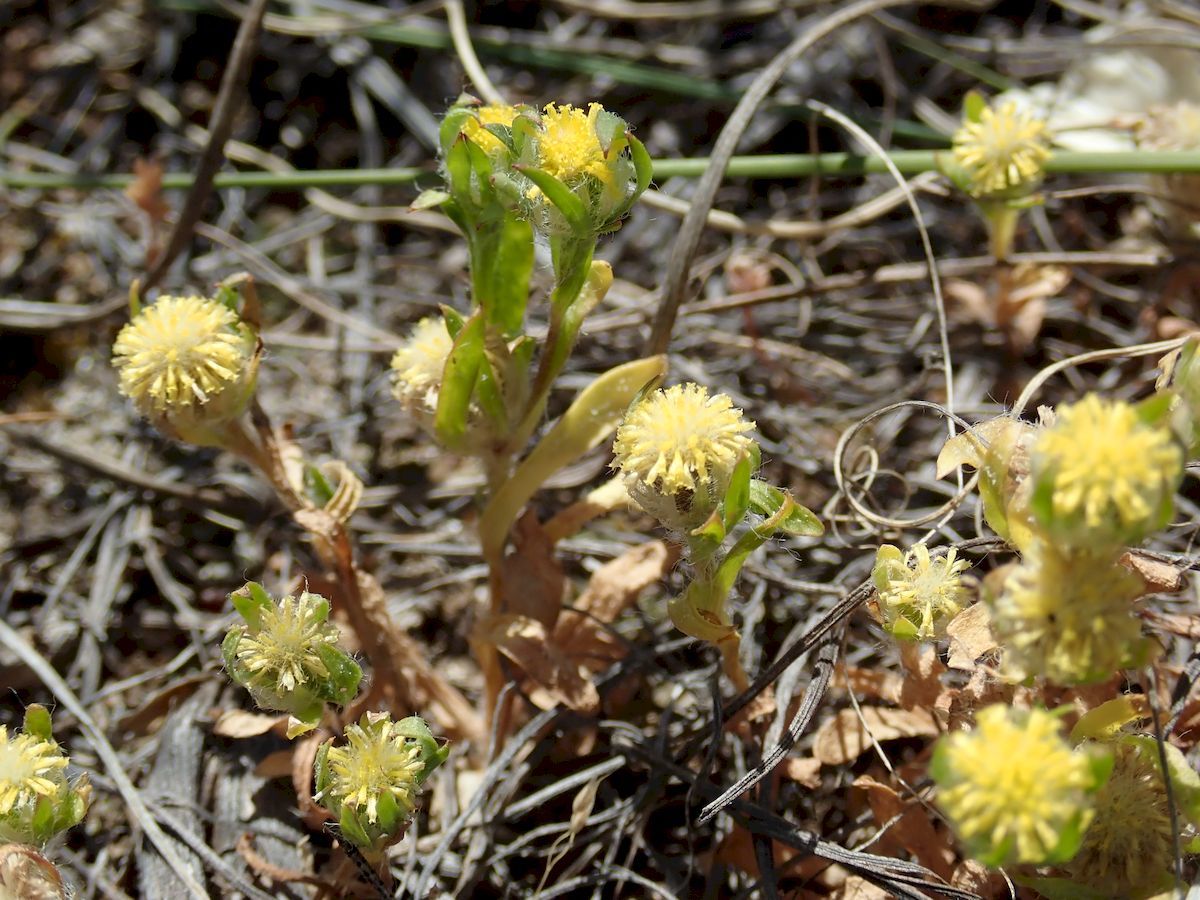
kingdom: Plantae
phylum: Tracheophyta
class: Magnoliopsida
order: Asterales
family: Asteraceae
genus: Triptilodiscus
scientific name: Triptilodiscus pygmaeus
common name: Common sunray
